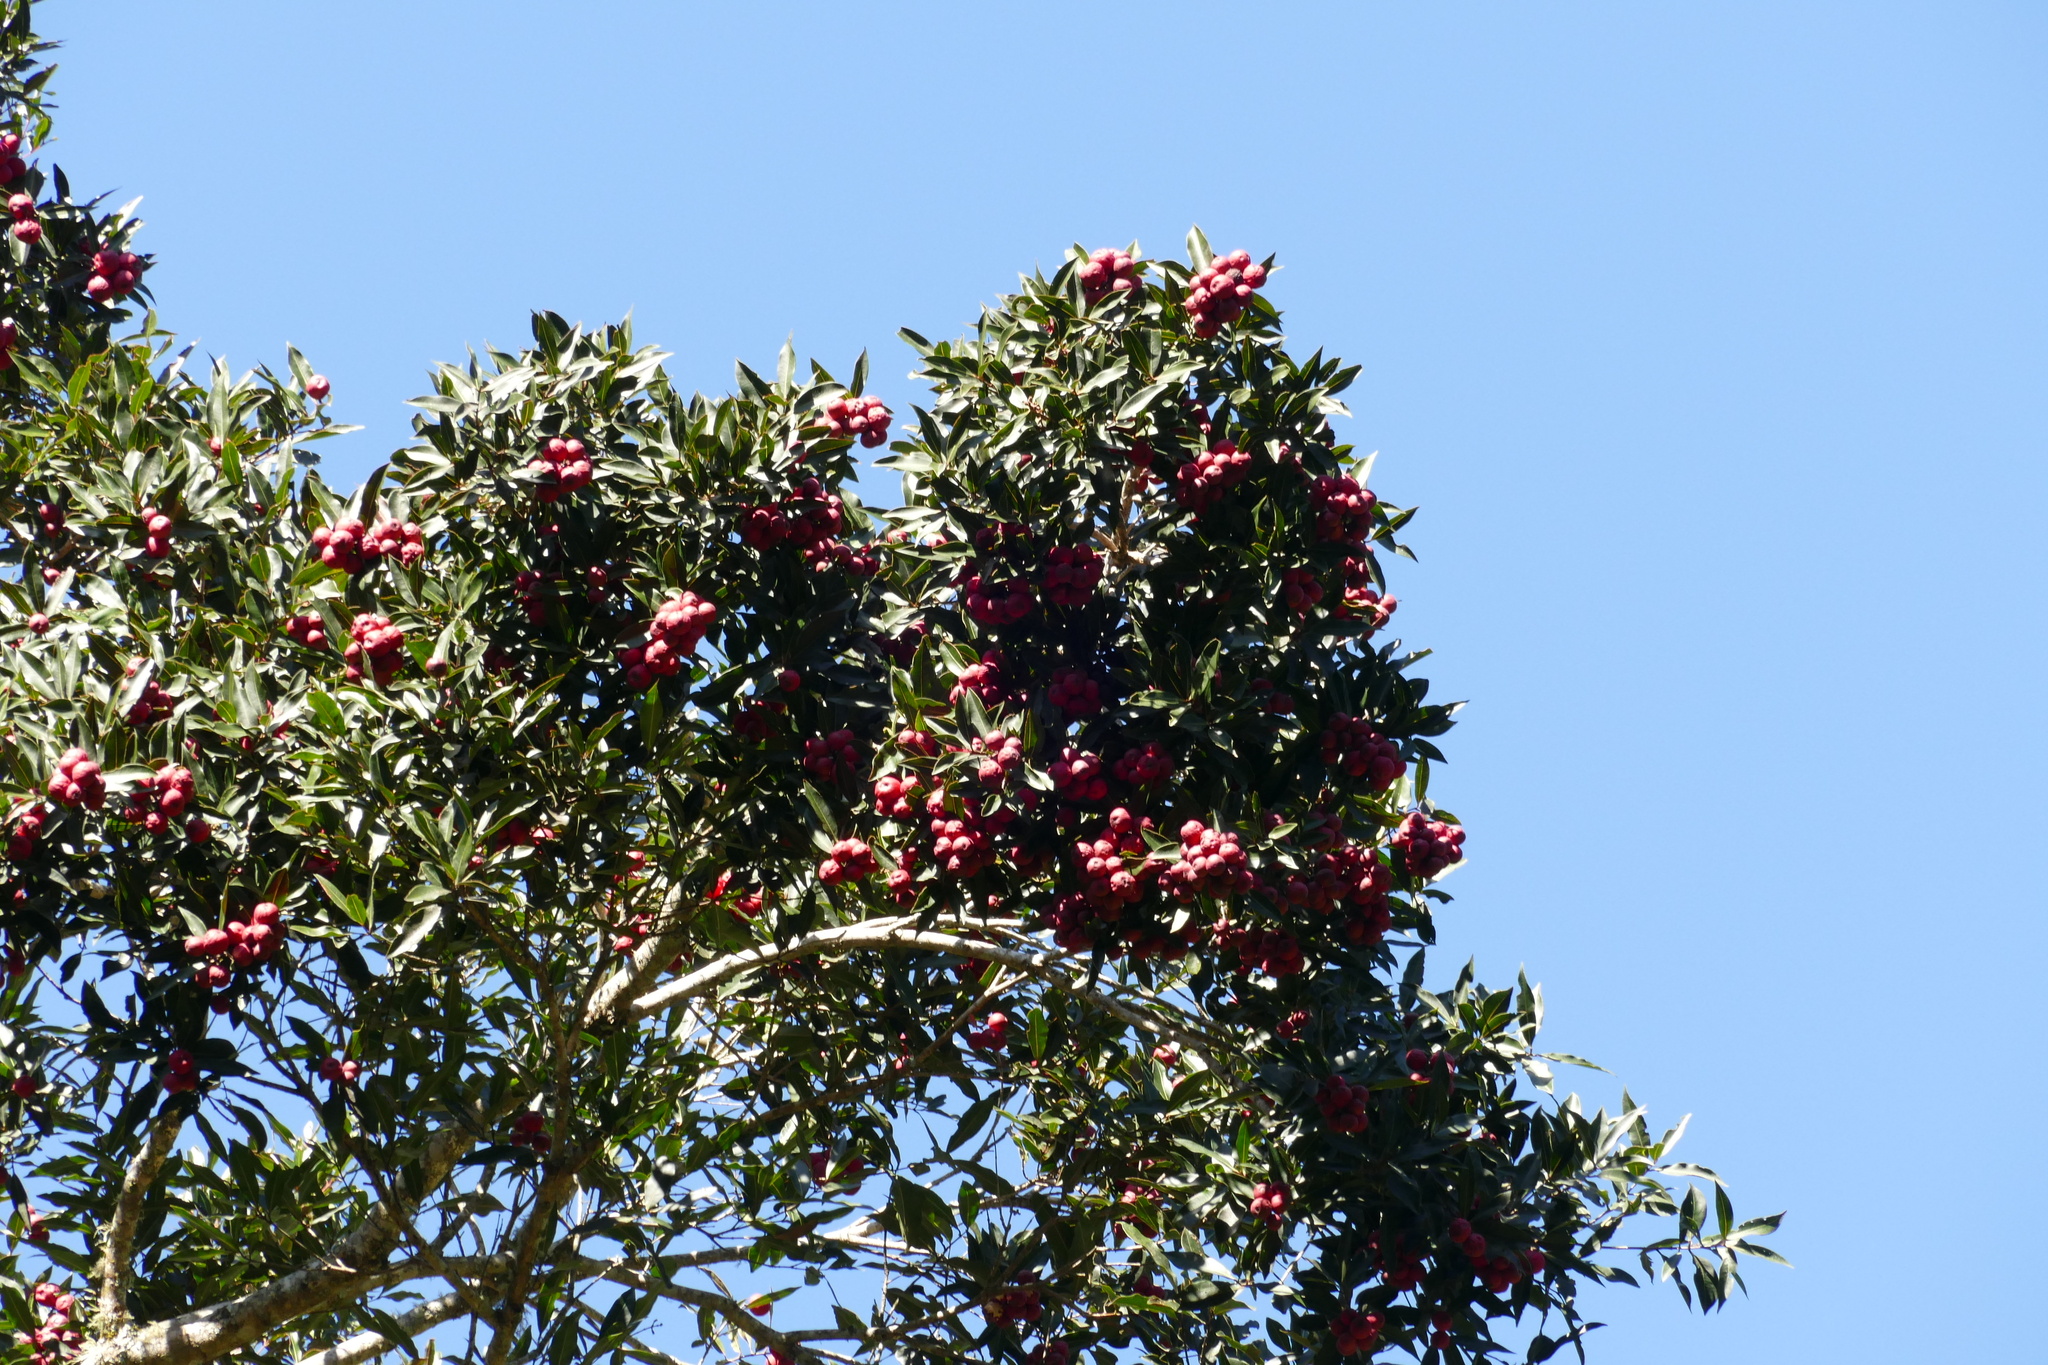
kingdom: Plantae
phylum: Tracheophyta
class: Magnoliopsida
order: Myrtales
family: Myrtaceae
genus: Syzygium
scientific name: Syzygium ingens
